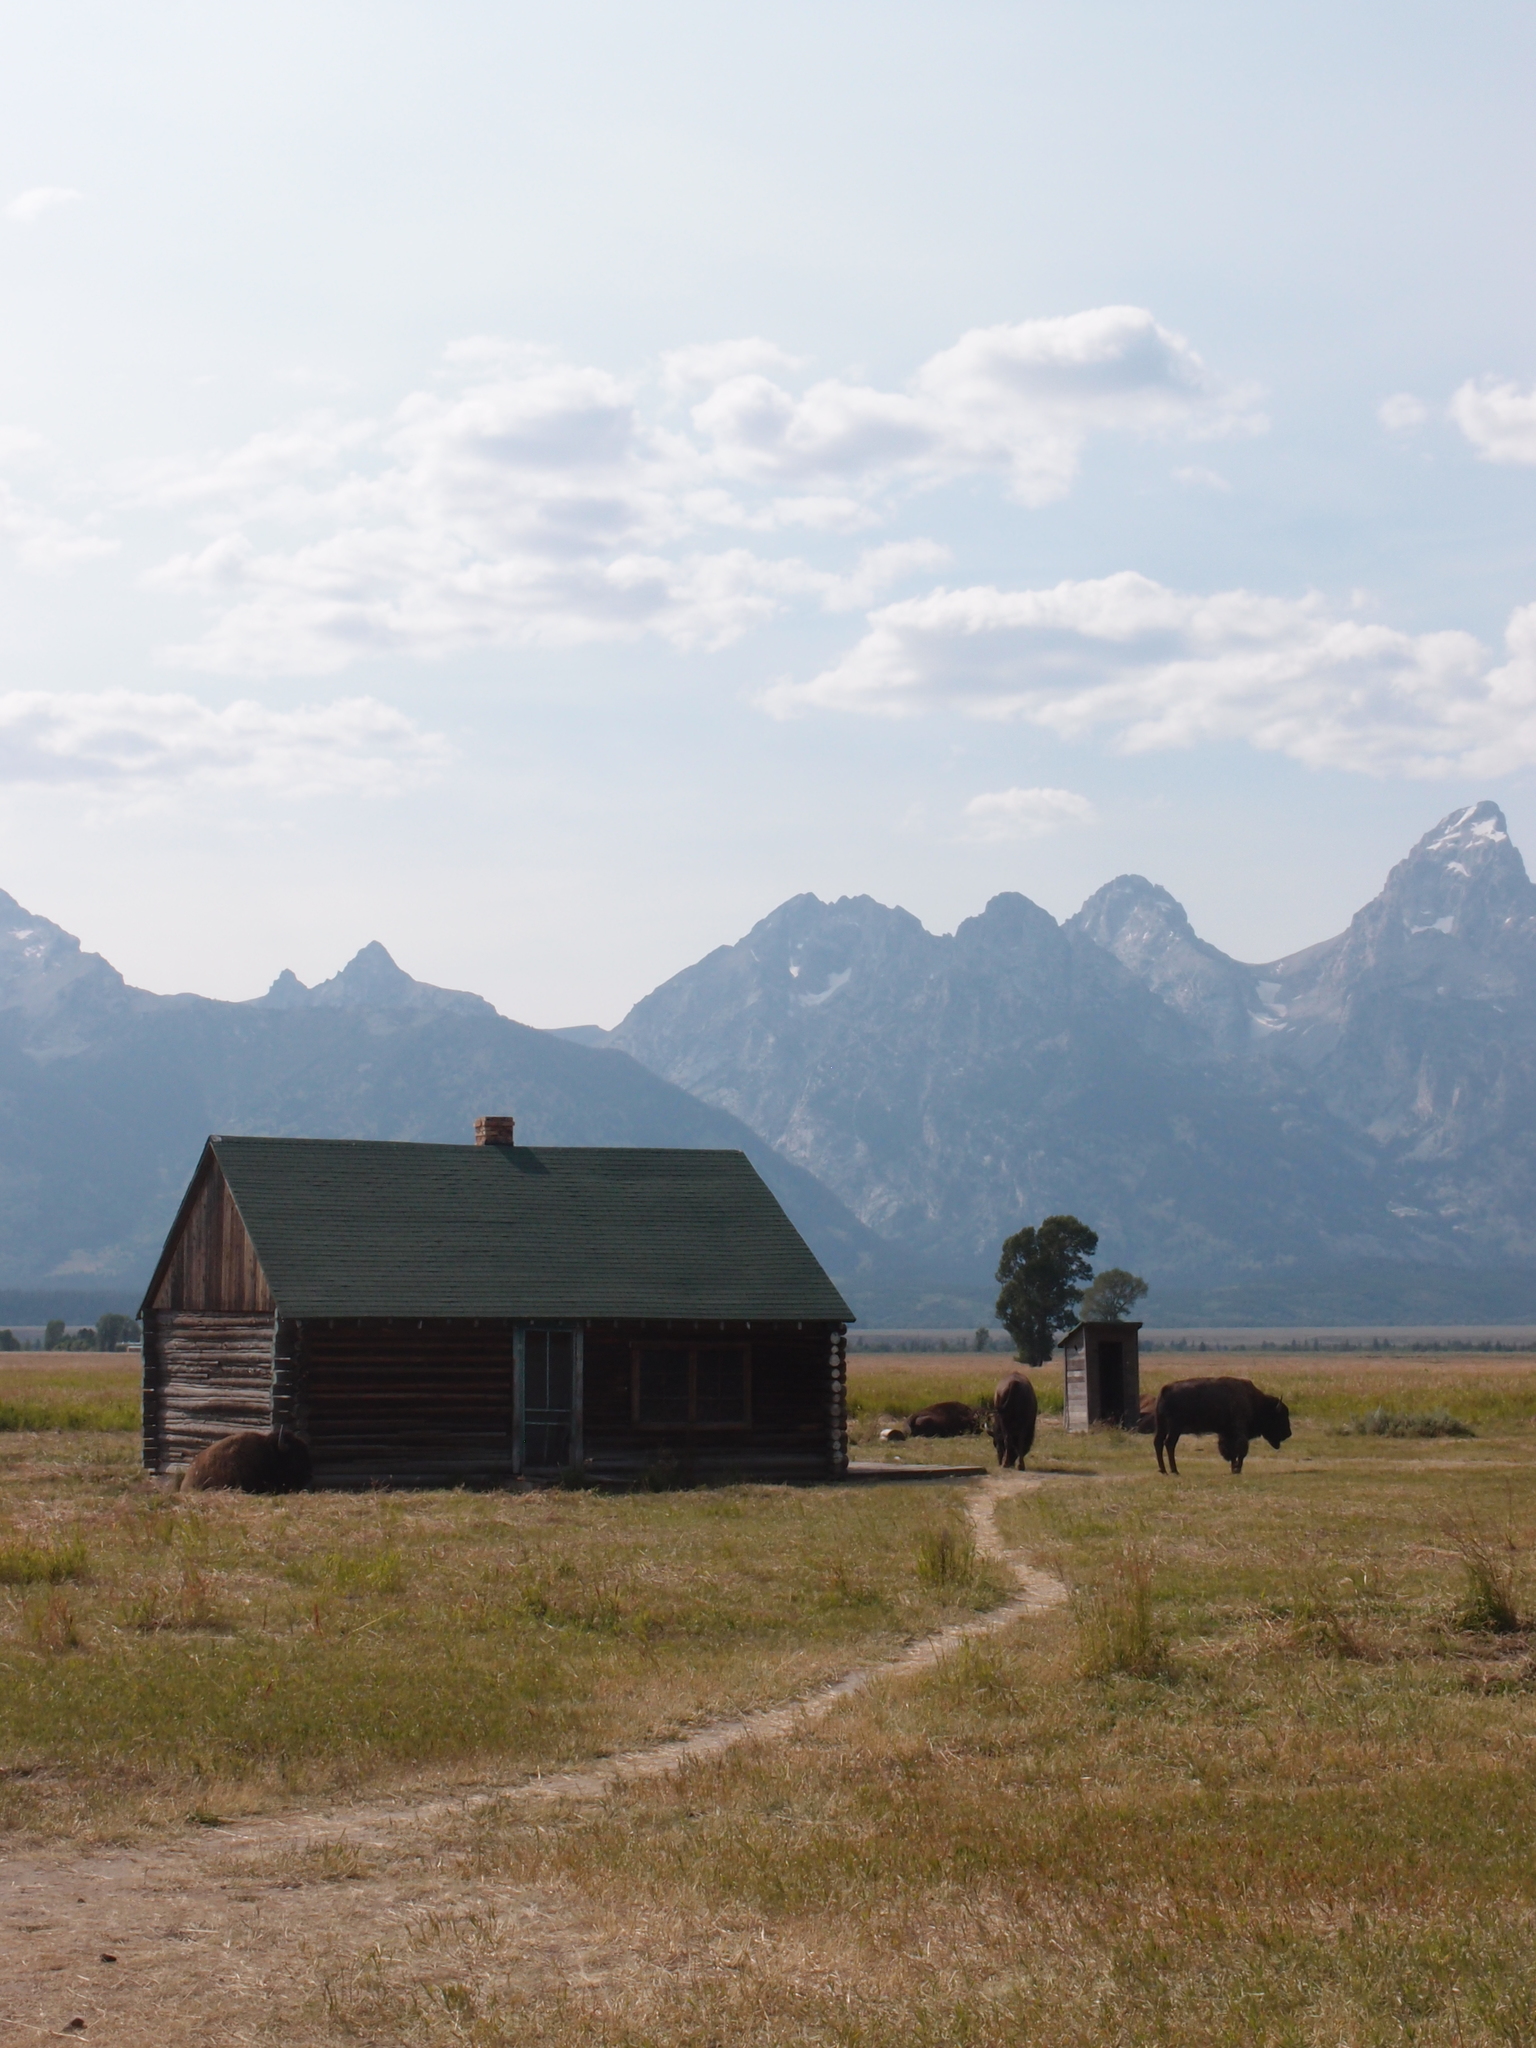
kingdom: Animalia
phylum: Chordata
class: Mammalia
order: Artiodactyla
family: Bovidae
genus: Bison
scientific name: Bison bison
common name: American bison
